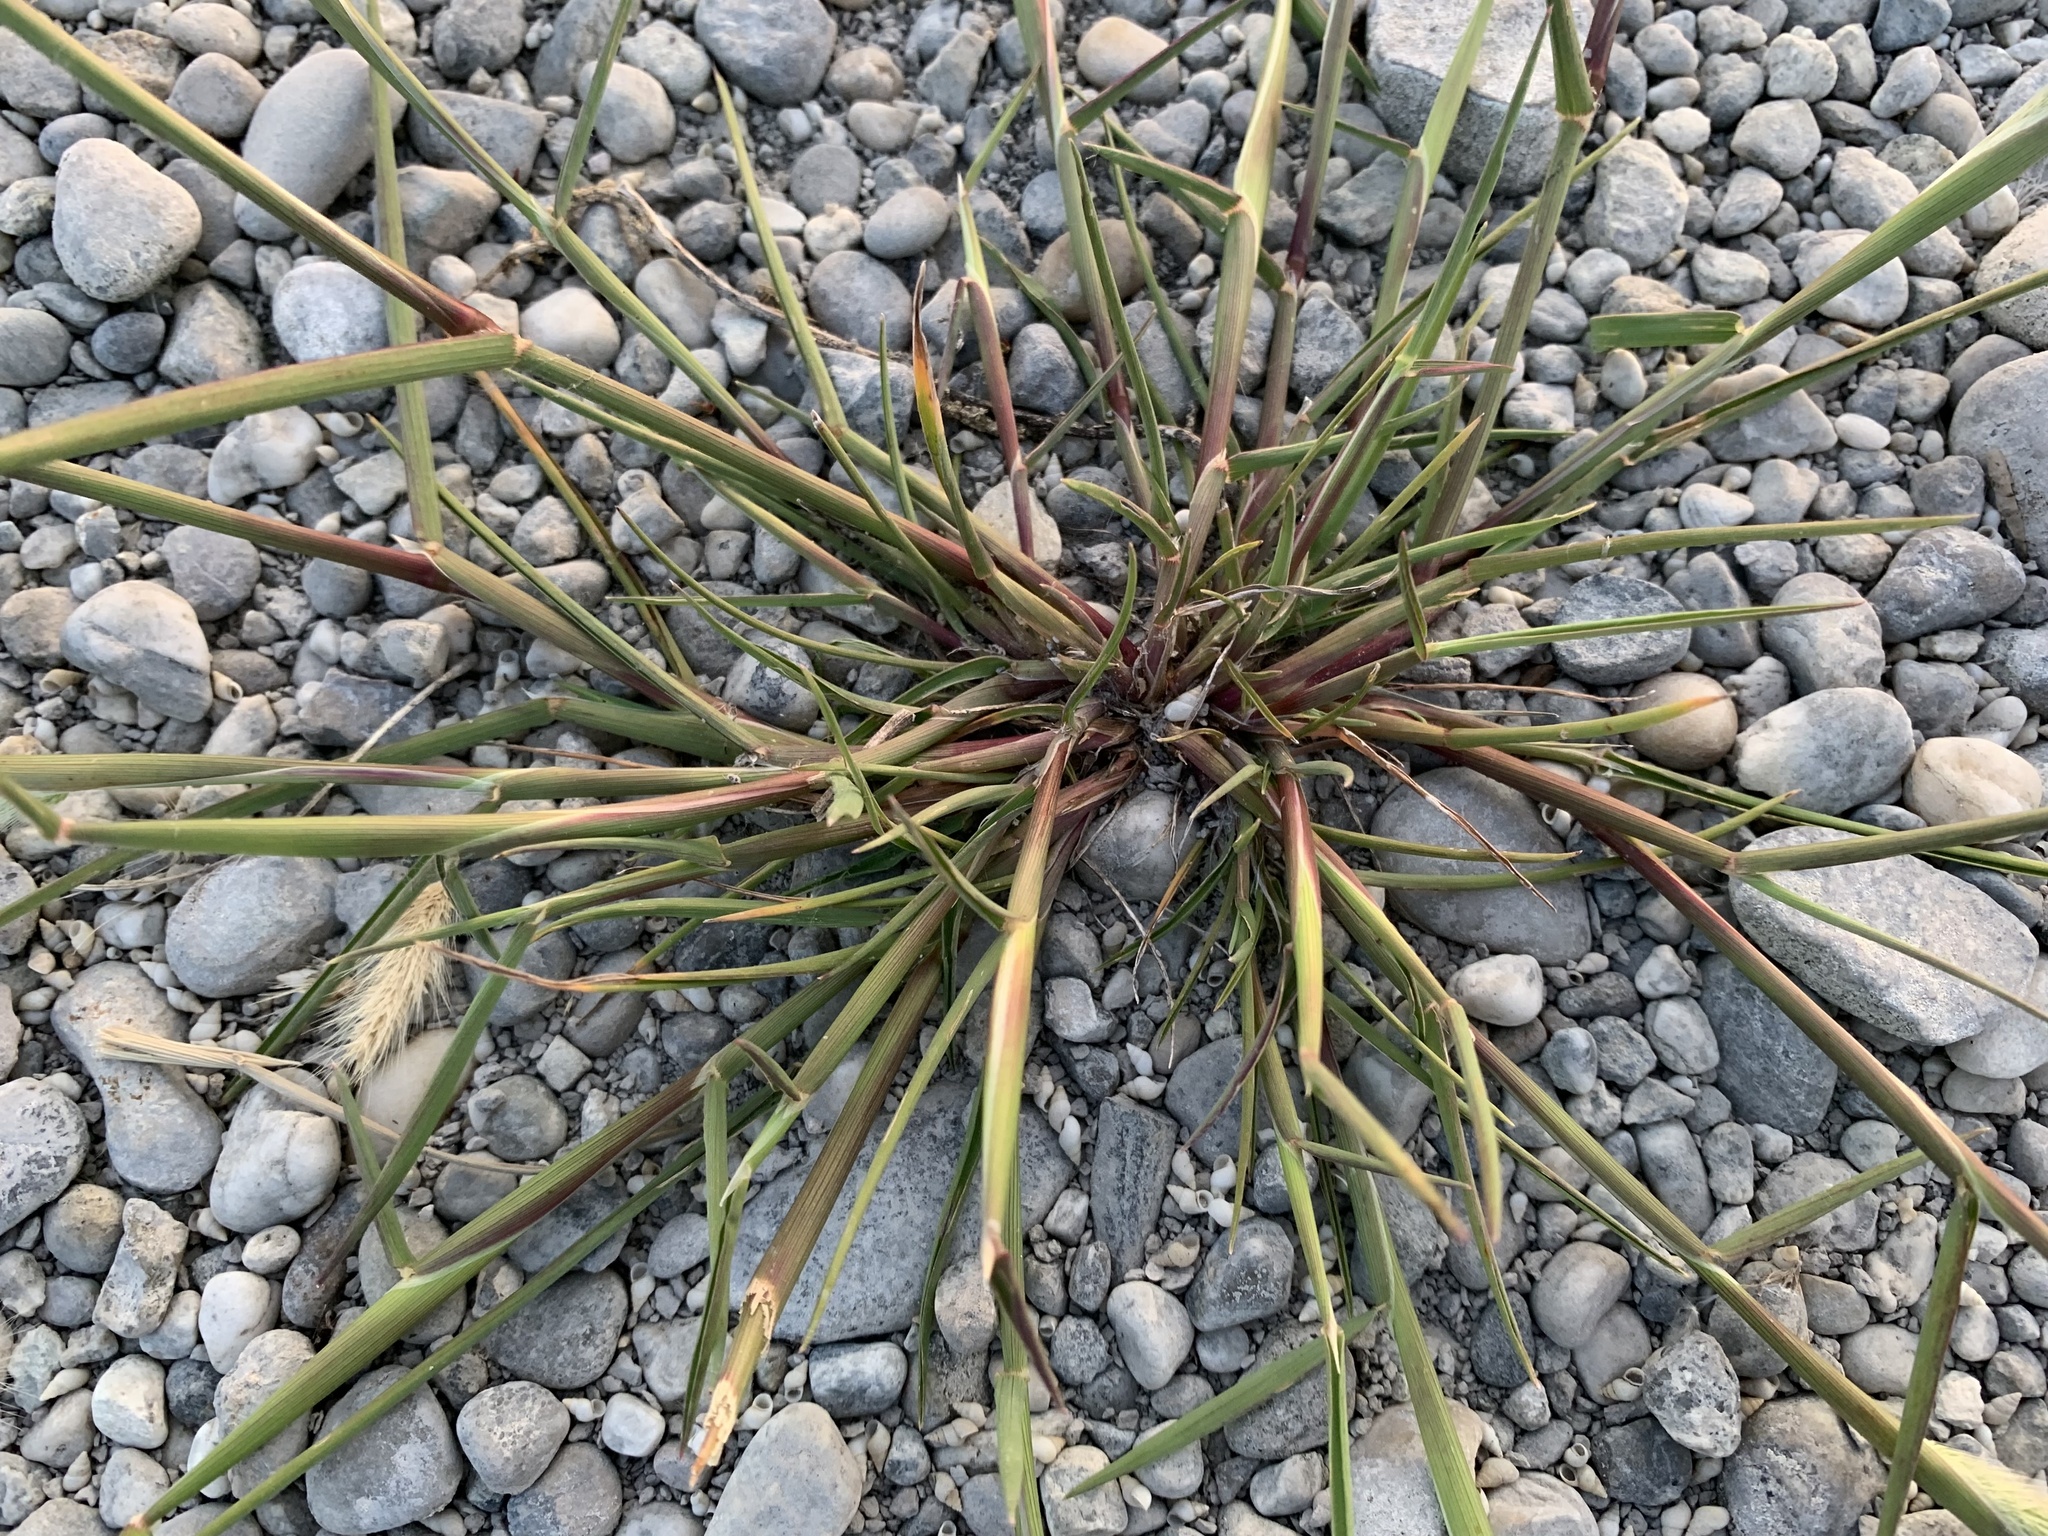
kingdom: Plantae
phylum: Tracheophyta
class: Liliopsida
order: Poales
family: Poaceae
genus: Polypogon
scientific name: Polypogon monspeliensis
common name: Annual rabbitsfoot grass
